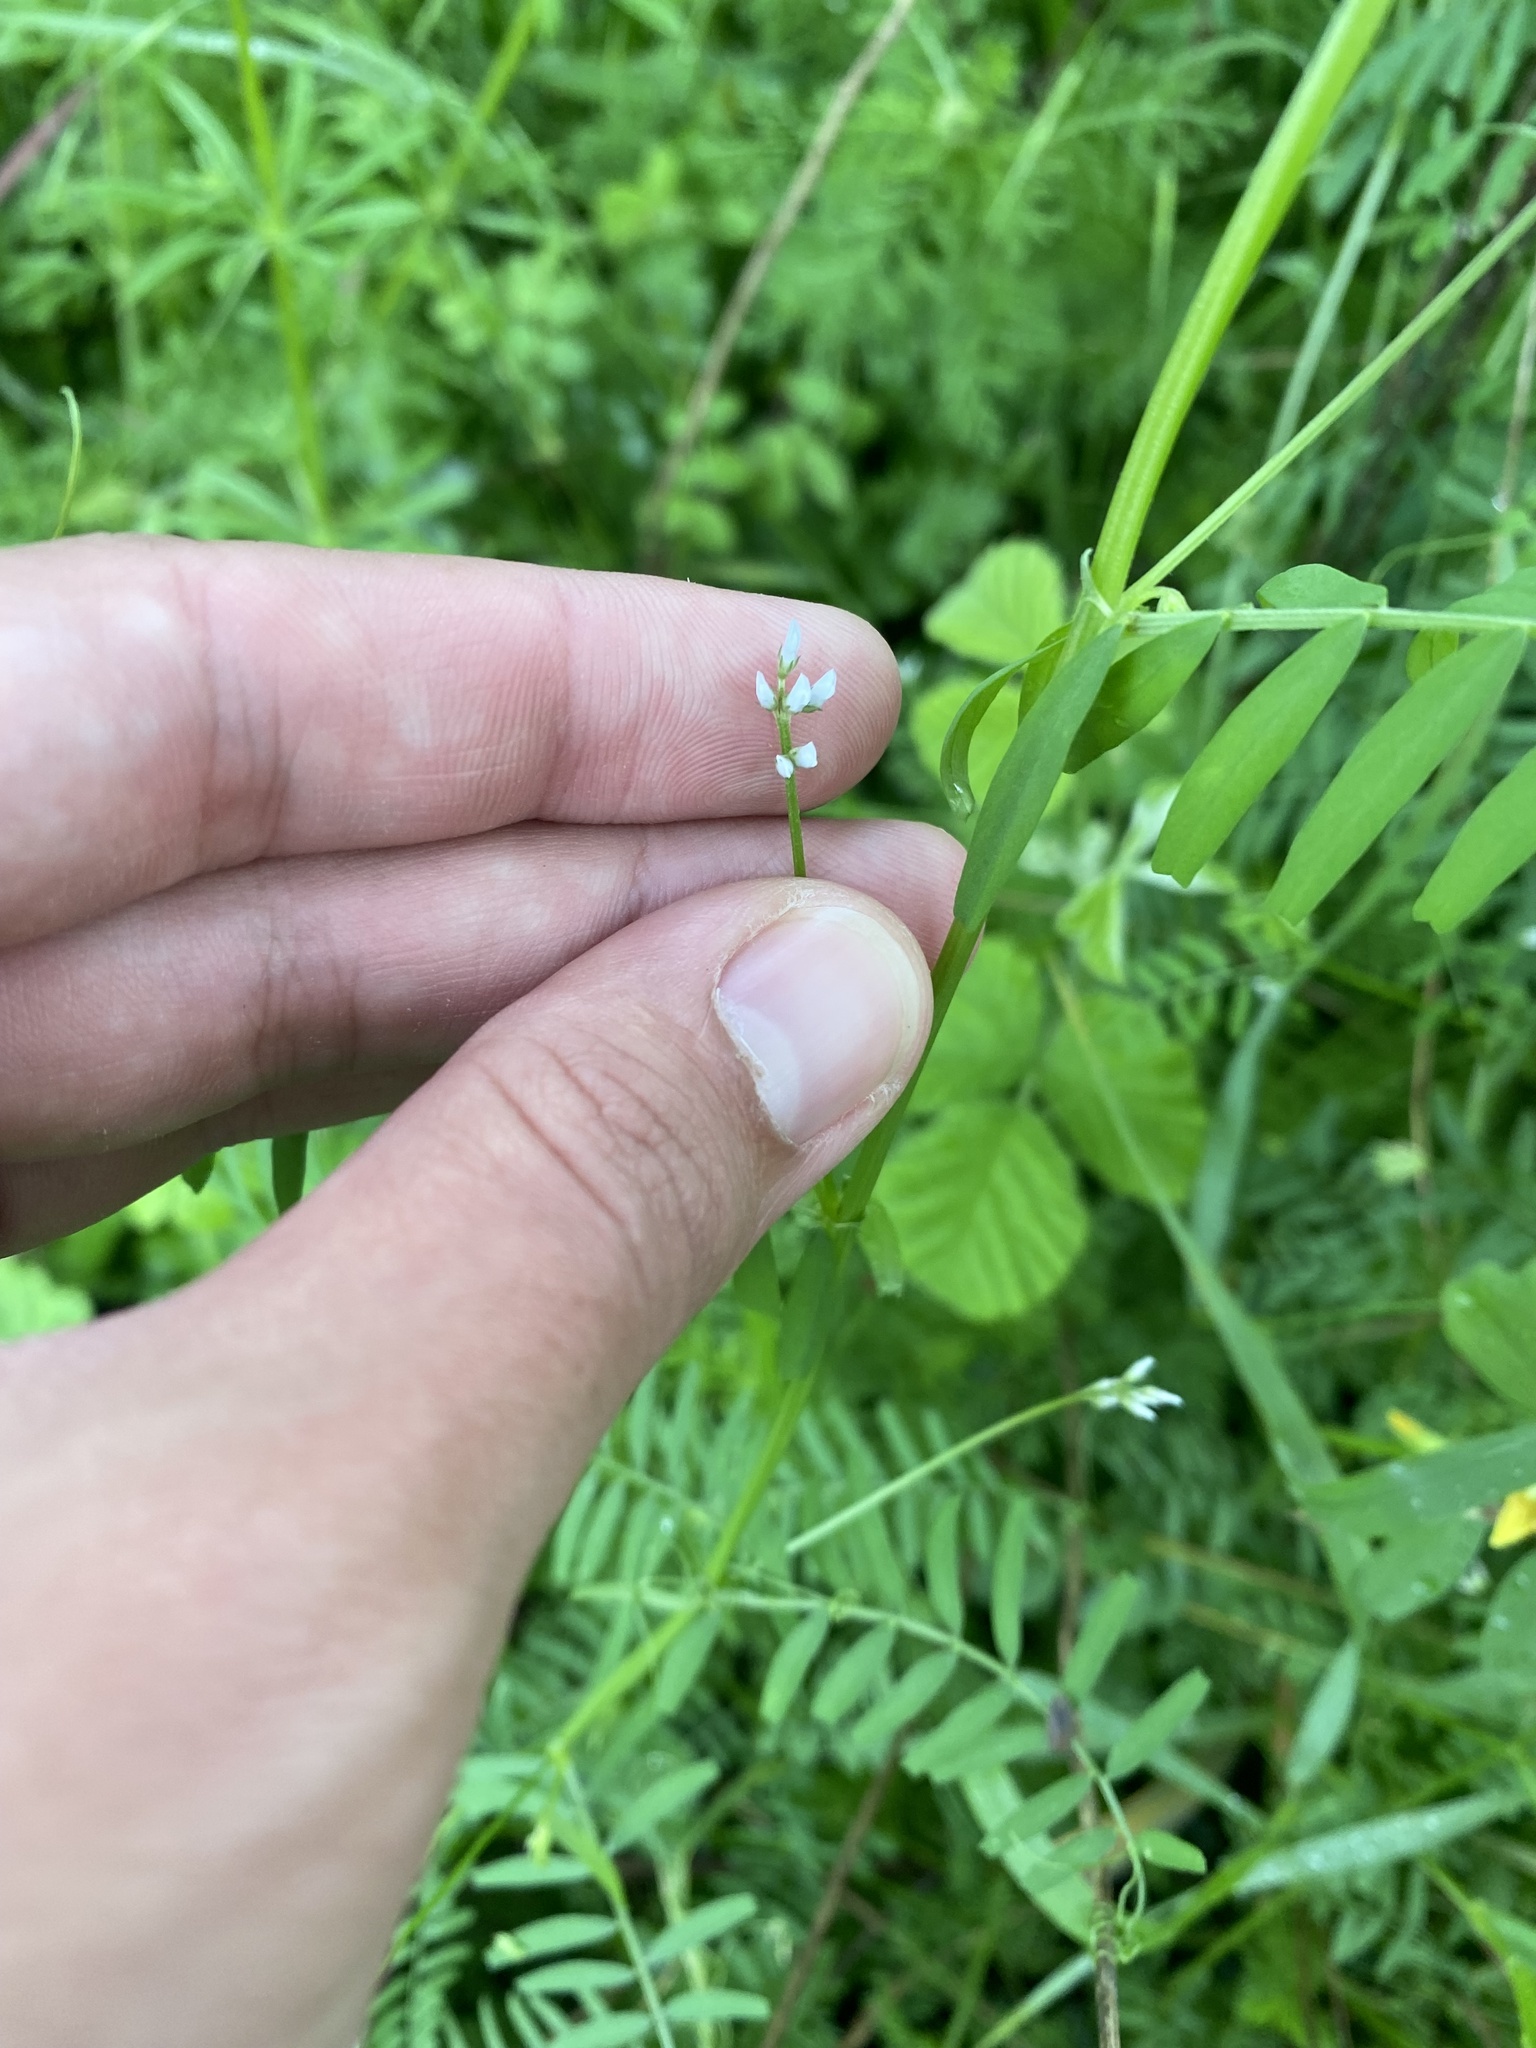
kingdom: Plantae
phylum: Tracheophyta
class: Magnoliopsida
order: Fabales
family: Fabaceae
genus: Vicia
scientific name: Vicia hirsuta
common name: Tiny vetch
